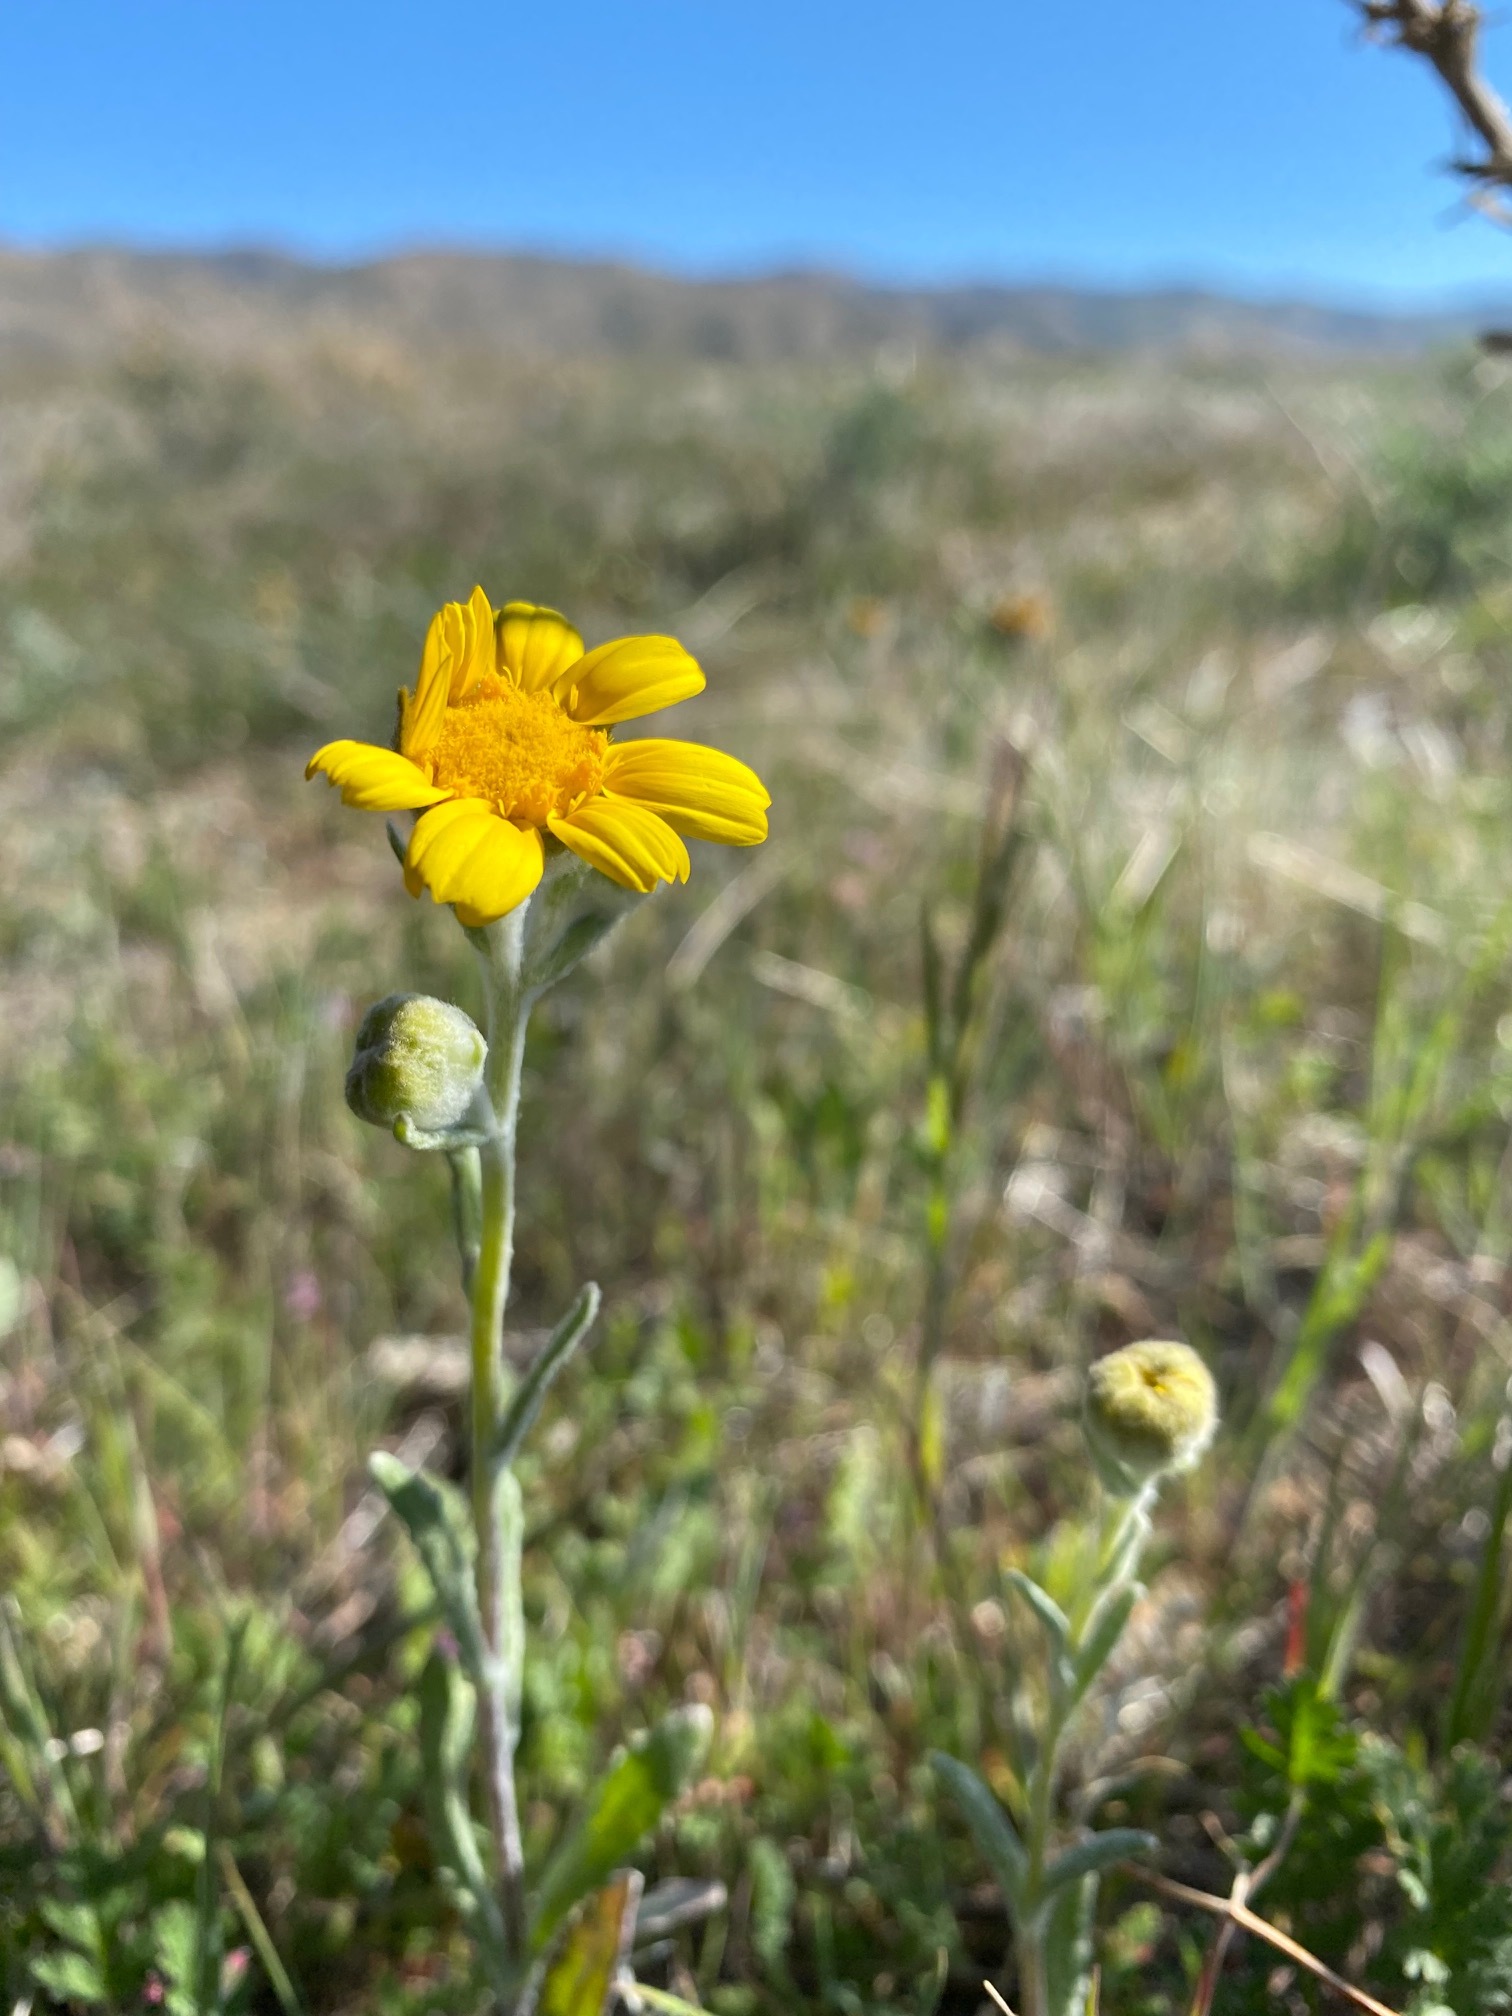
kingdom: Plantae
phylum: Tracheophyta
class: Magnoliopsida
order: Asterales
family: Asteraceae
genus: Monolopia
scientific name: Monolopia lanceolata
